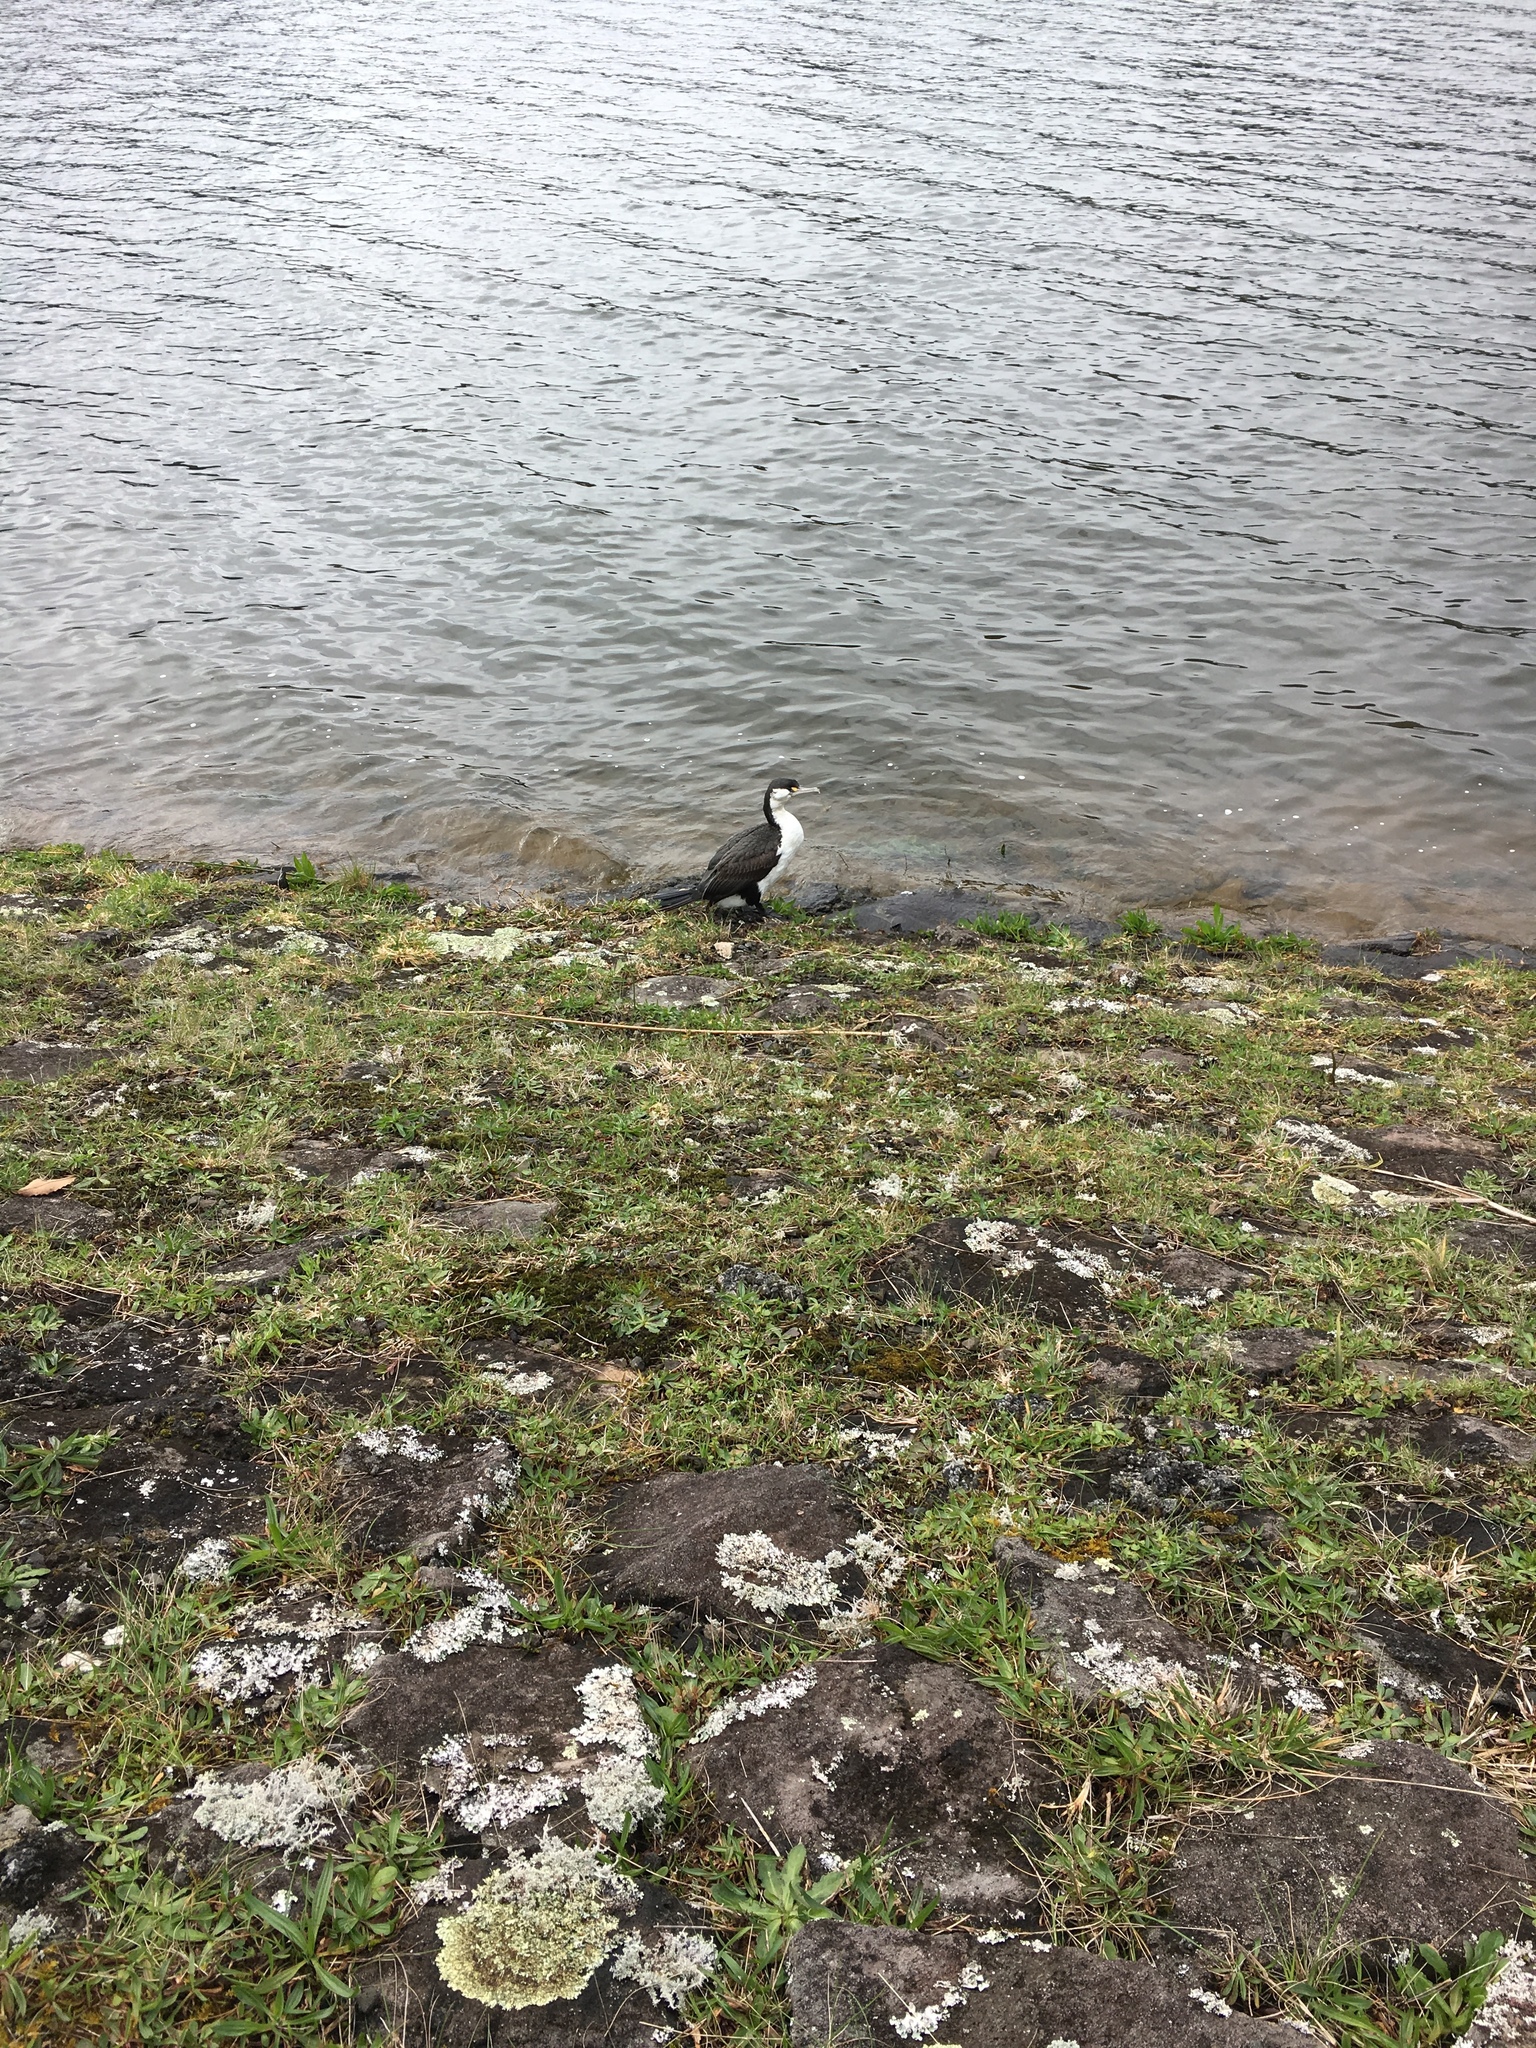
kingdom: Animalia
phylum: Chordata
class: Aves
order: Suliformes
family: Phalacrocoracidae
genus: Phalacrocorax
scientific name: Phalacrocorax varius
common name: Pied cormorant
